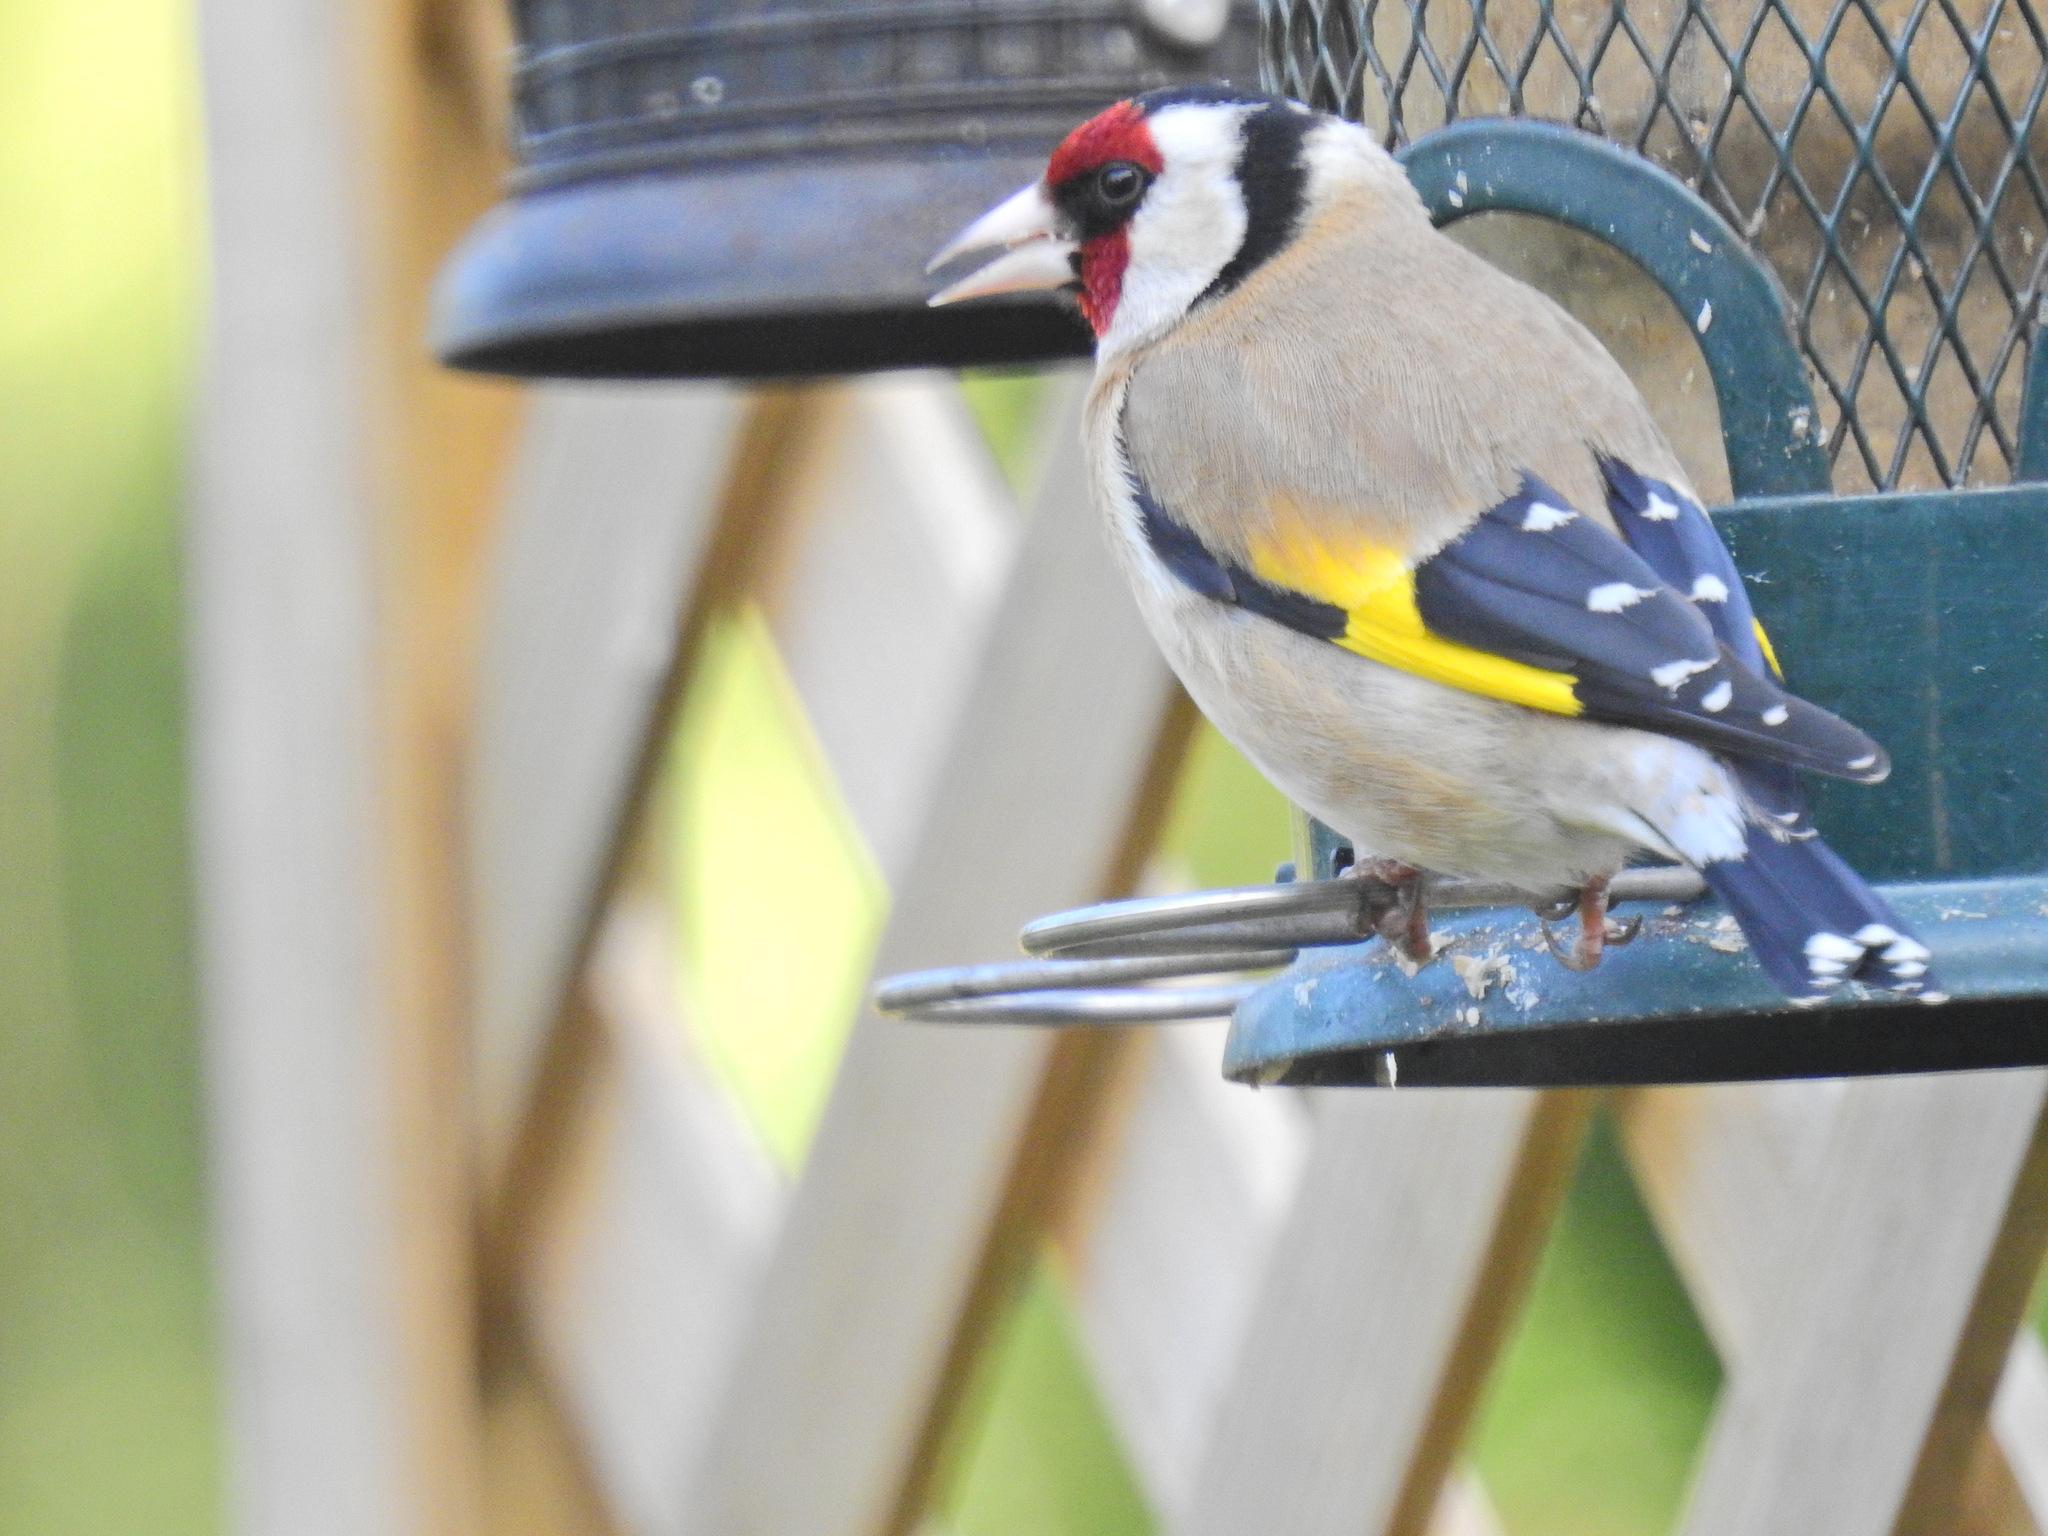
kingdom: Animalia
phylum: Chordata
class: Aves
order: Passeriformes
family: Fringillidae
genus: Carduelis
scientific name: Carduelis carduelis
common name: European goldfinch
